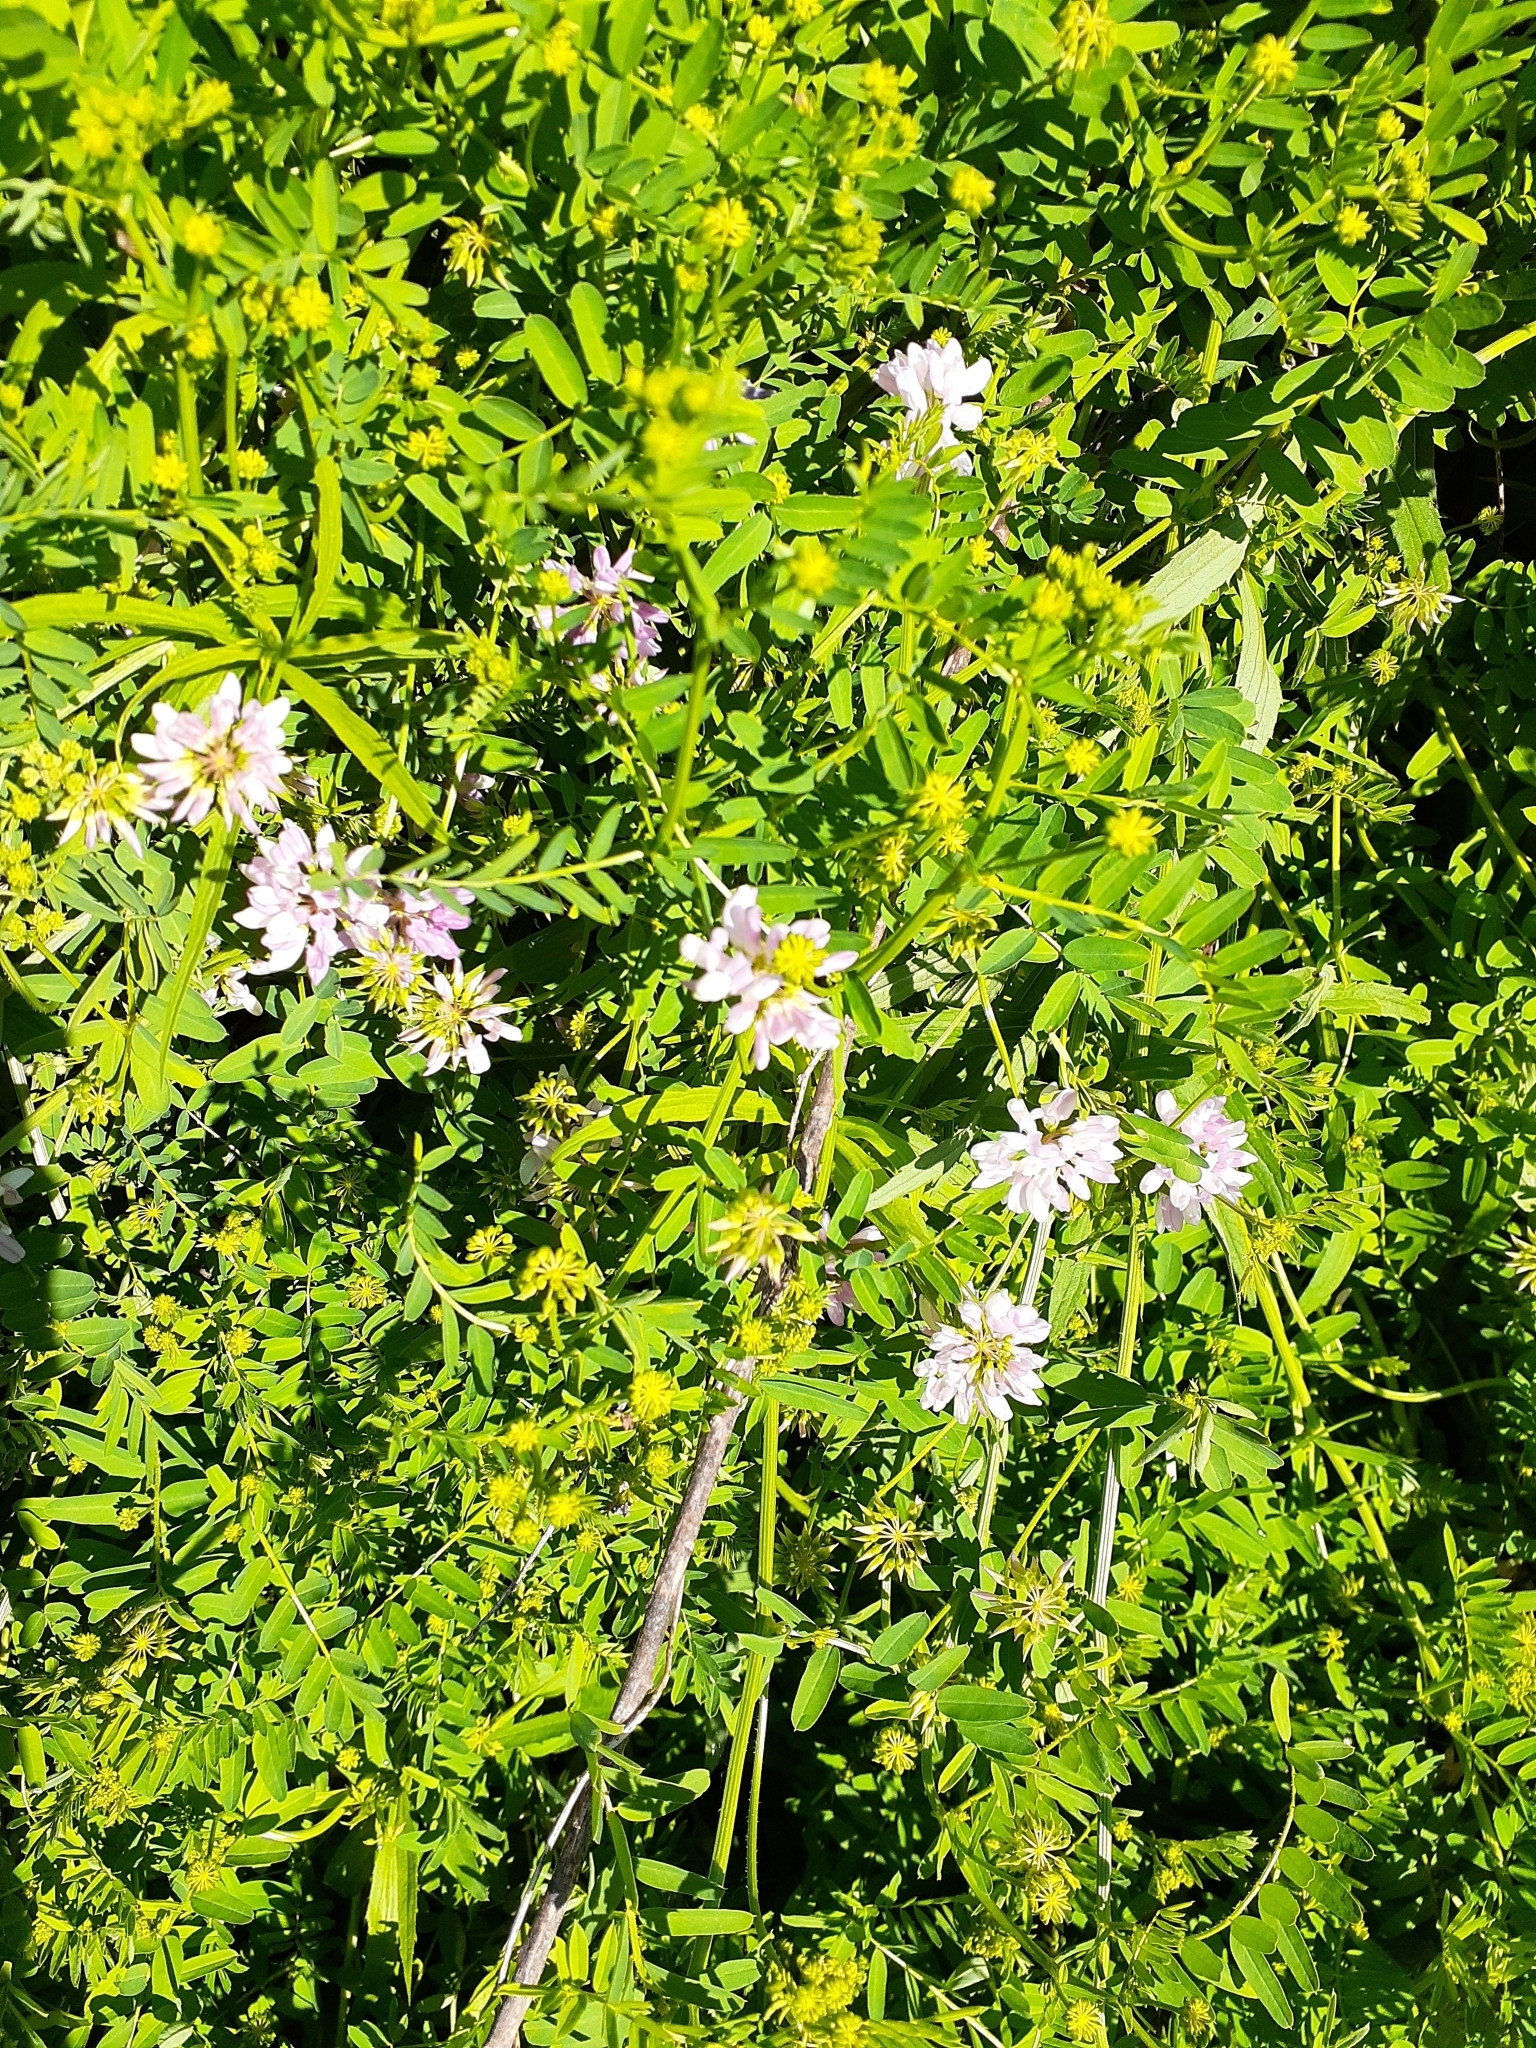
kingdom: Plantae
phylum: Tracheophyta
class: Magnoliopsida
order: Fabales
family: Fabaceae
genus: Coronilla
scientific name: Coronilla varia
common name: Crownvetch
